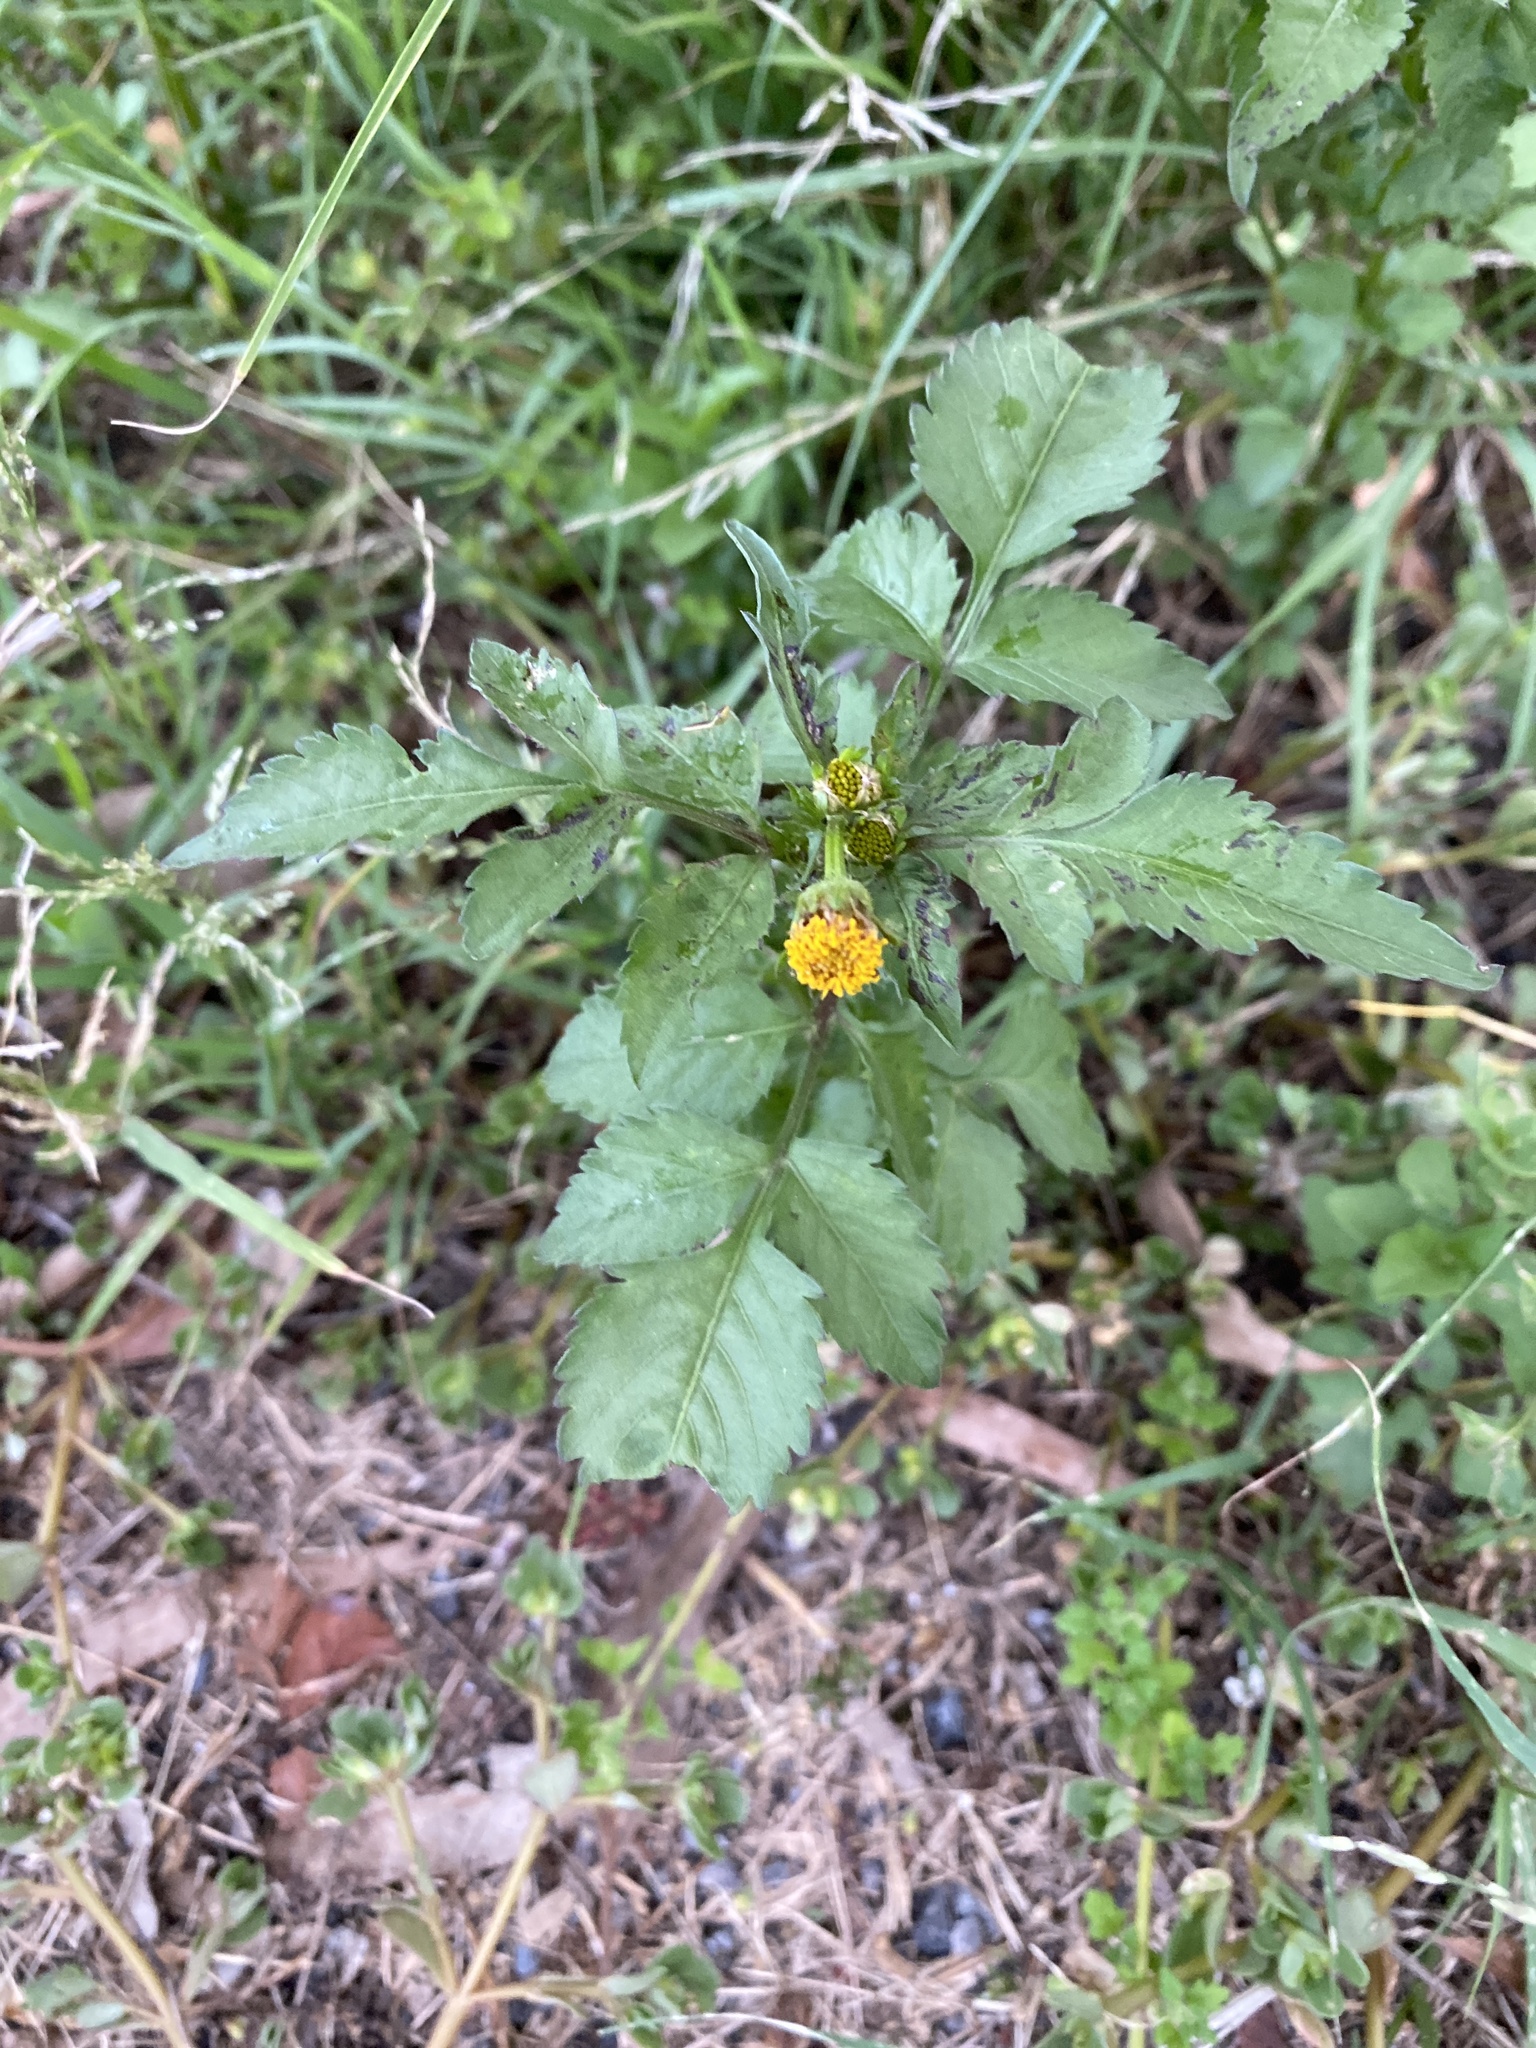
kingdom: Plantae
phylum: Tracheophyta
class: Magnoliopsida
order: Asterales
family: Asteraceae
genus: Bidens
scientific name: Bidens pilosa
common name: Black-jack
